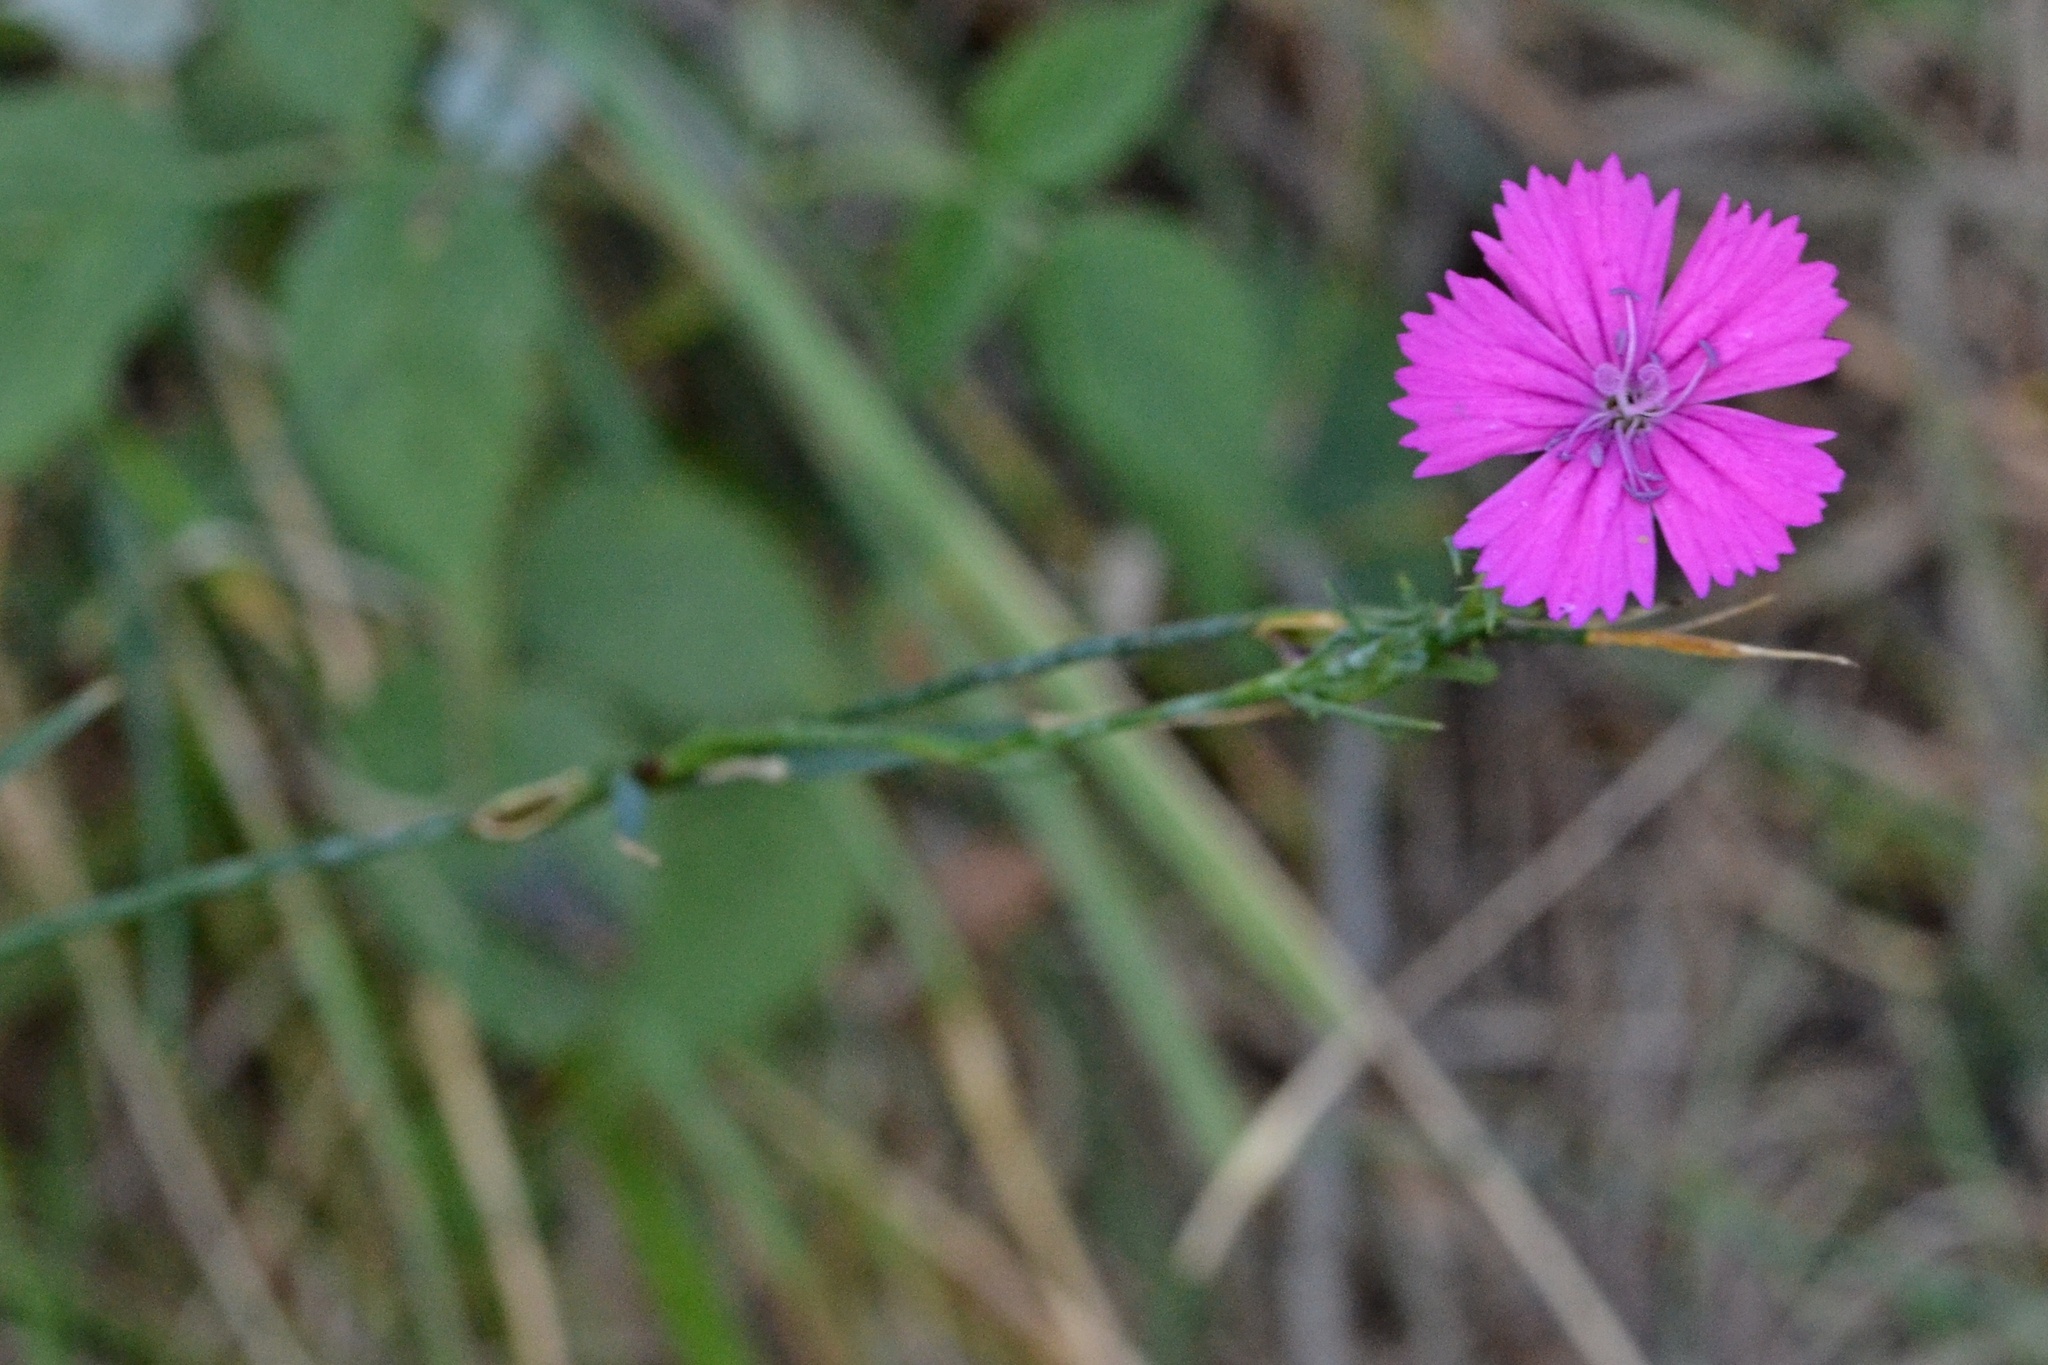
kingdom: Plantae
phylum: Tracheophyta
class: Magnoliopsida
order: Caryophyllales
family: Caryophyllaceae
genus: Dianthus
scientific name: Dianthus carthusianorum
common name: Carthusian pink
